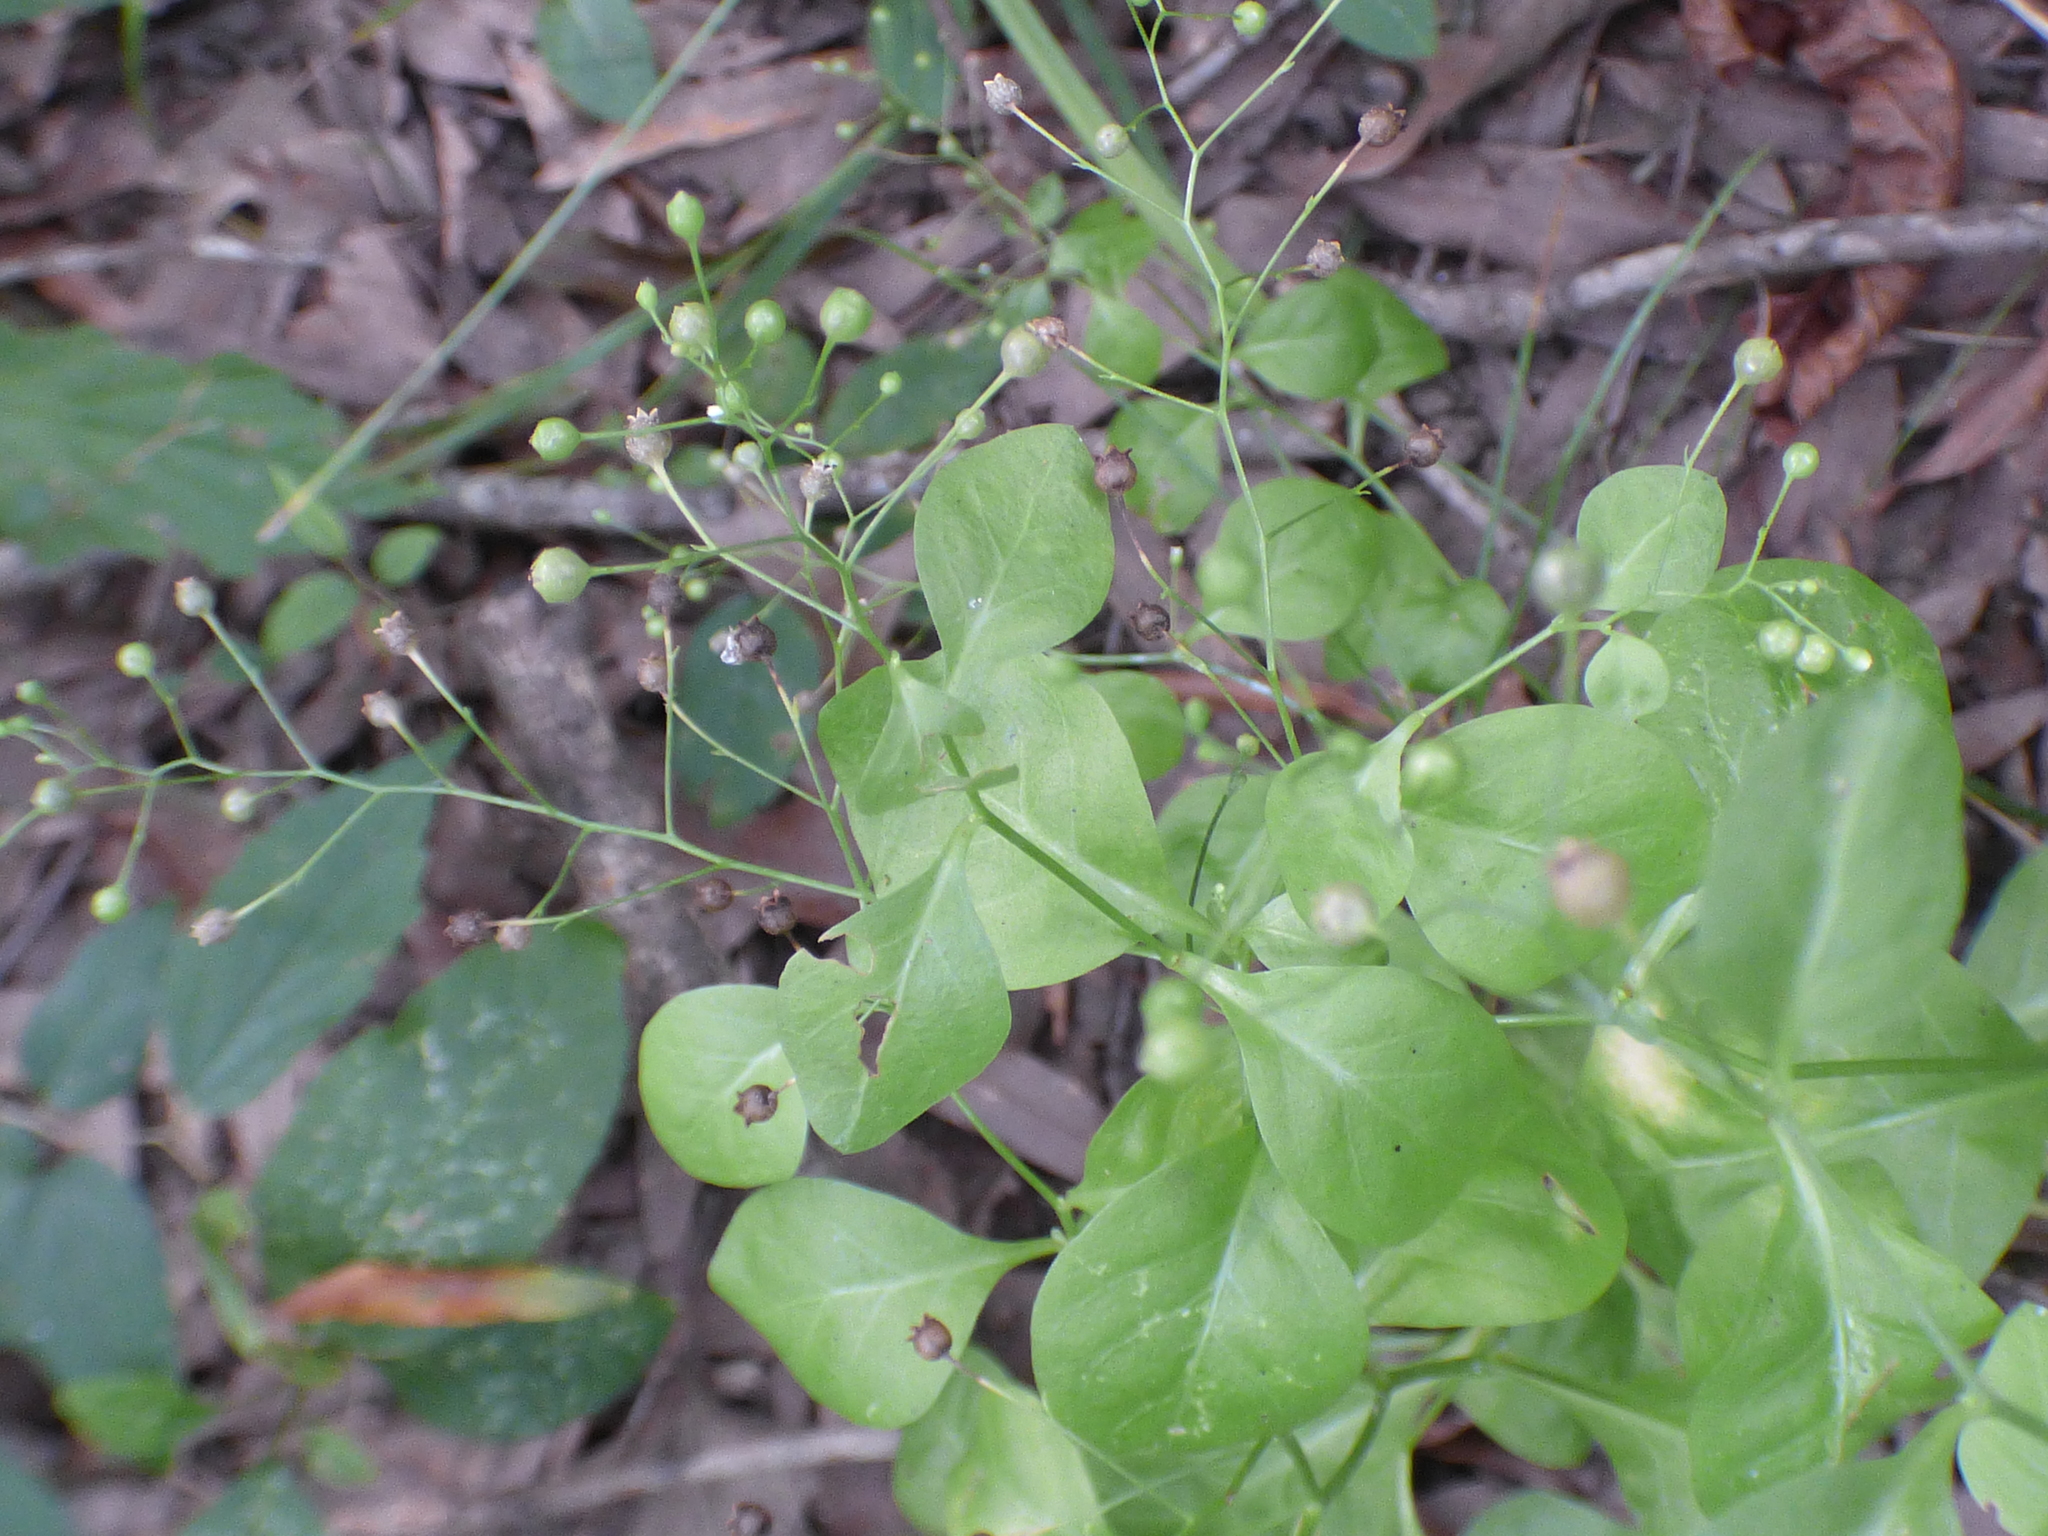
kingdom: Plantae
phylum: Tracheophyta
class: Magnoliopsida
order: Ericales
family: Primulaceae
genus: Samolus
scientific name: Samolus parviflorus
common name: False water pimpernel
